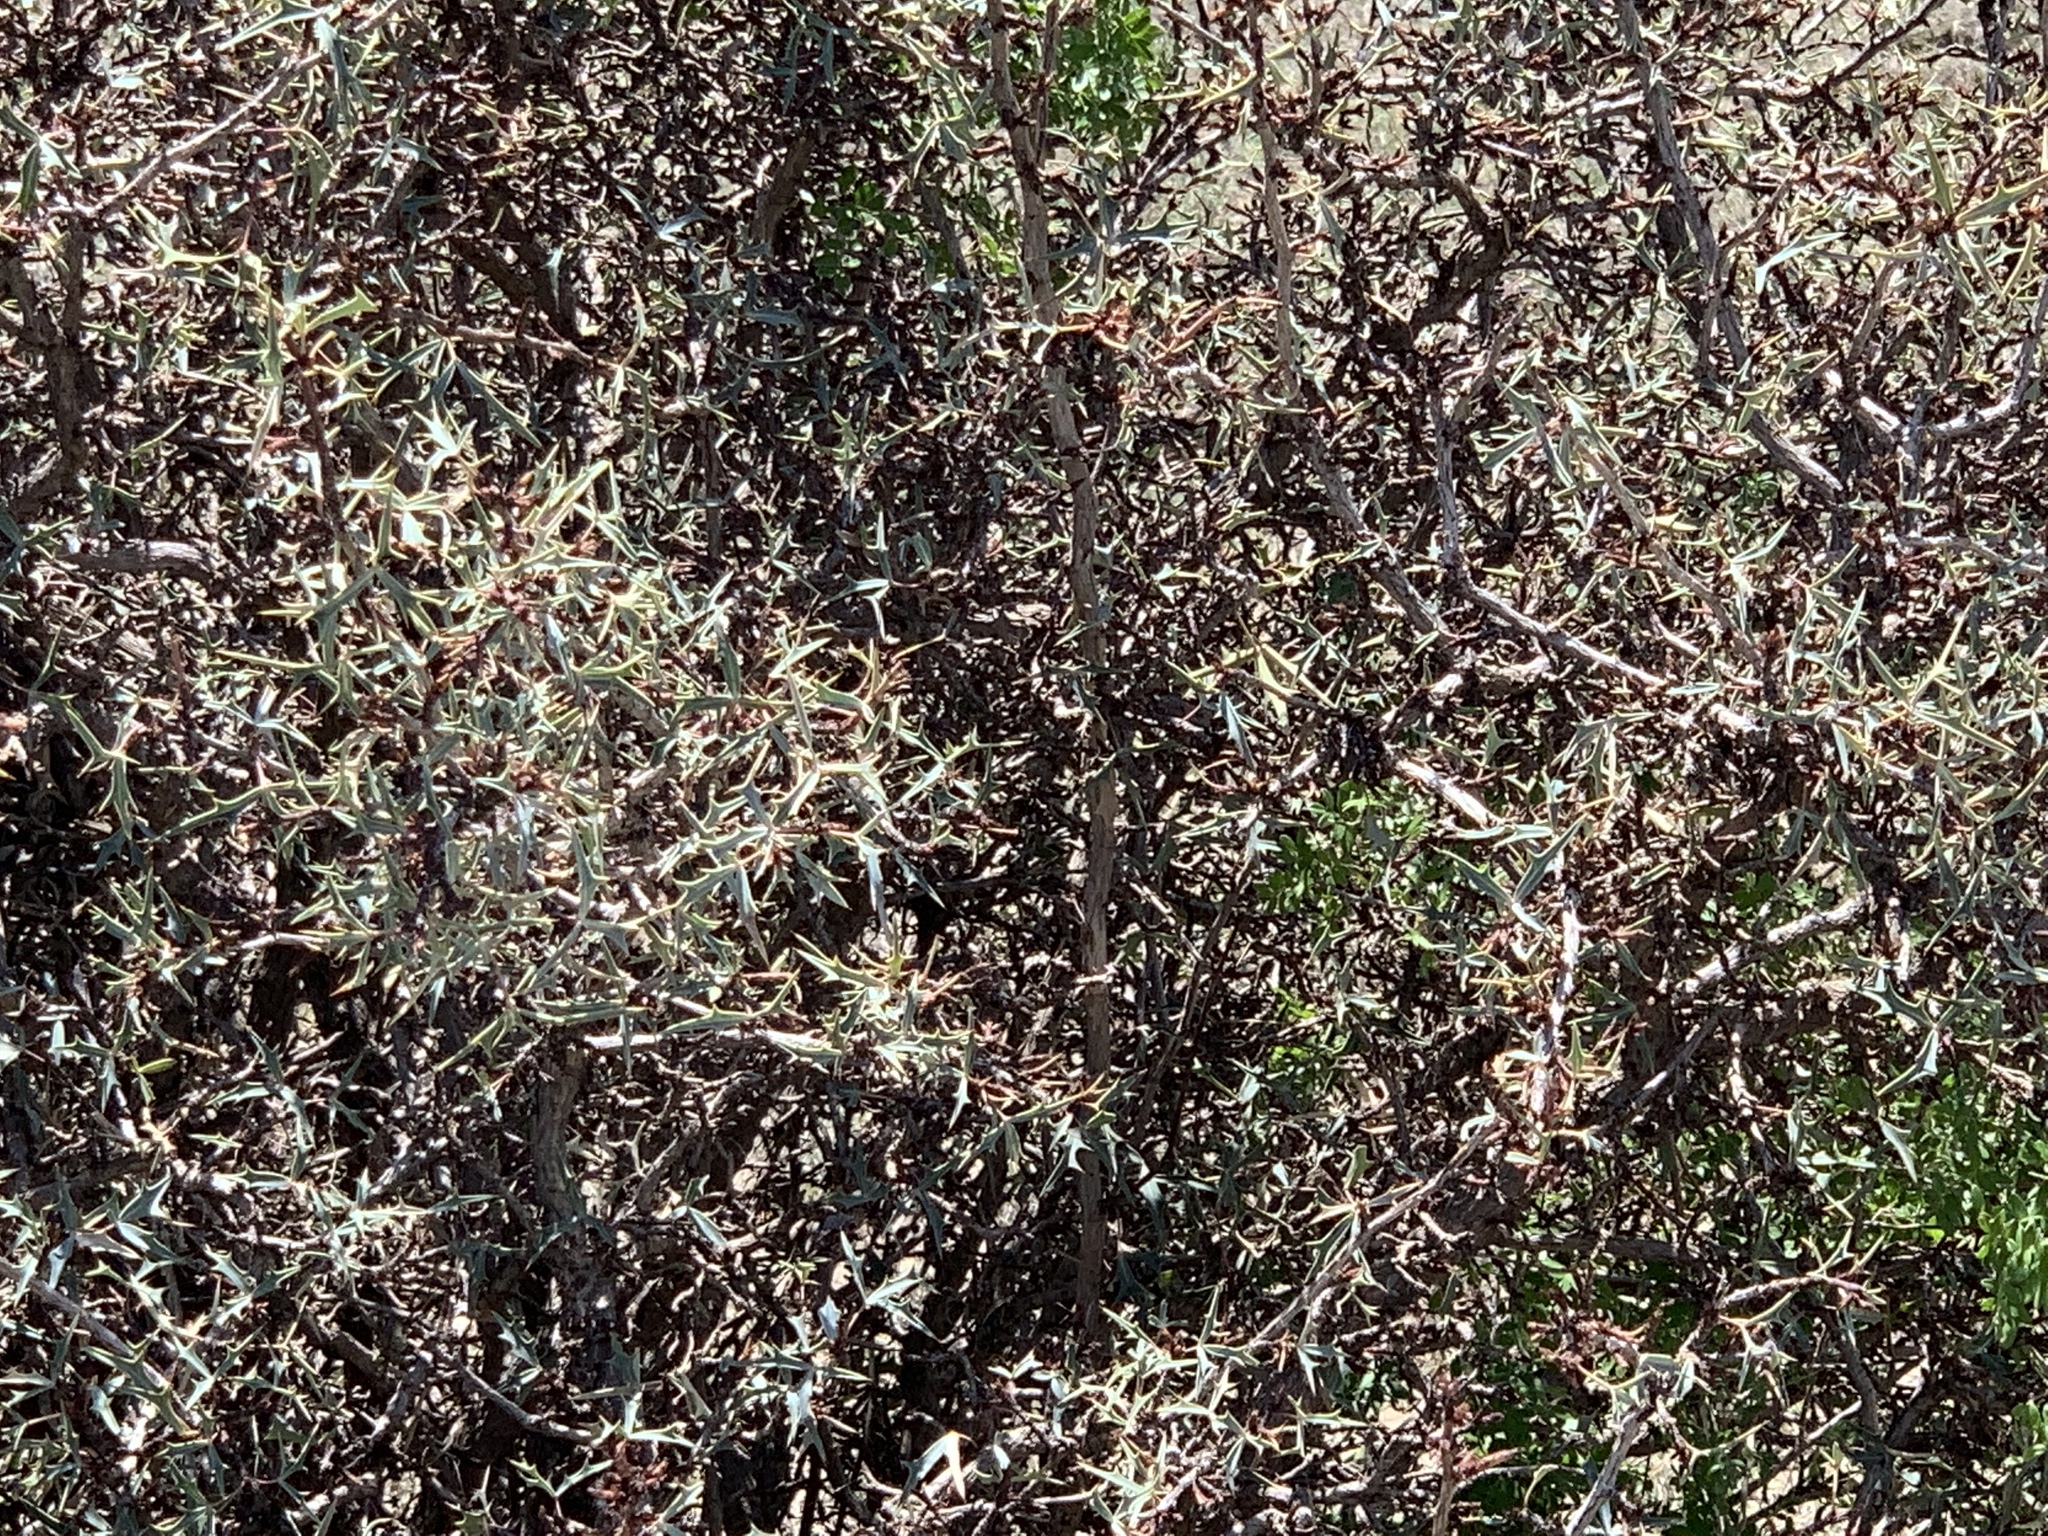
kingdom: Plantae
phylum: Tracheophyta
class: Magnoliopsida
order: Ranunculales
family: Berberidaceae
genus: Alloberberis
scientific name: Alloberberis trifoliolata
